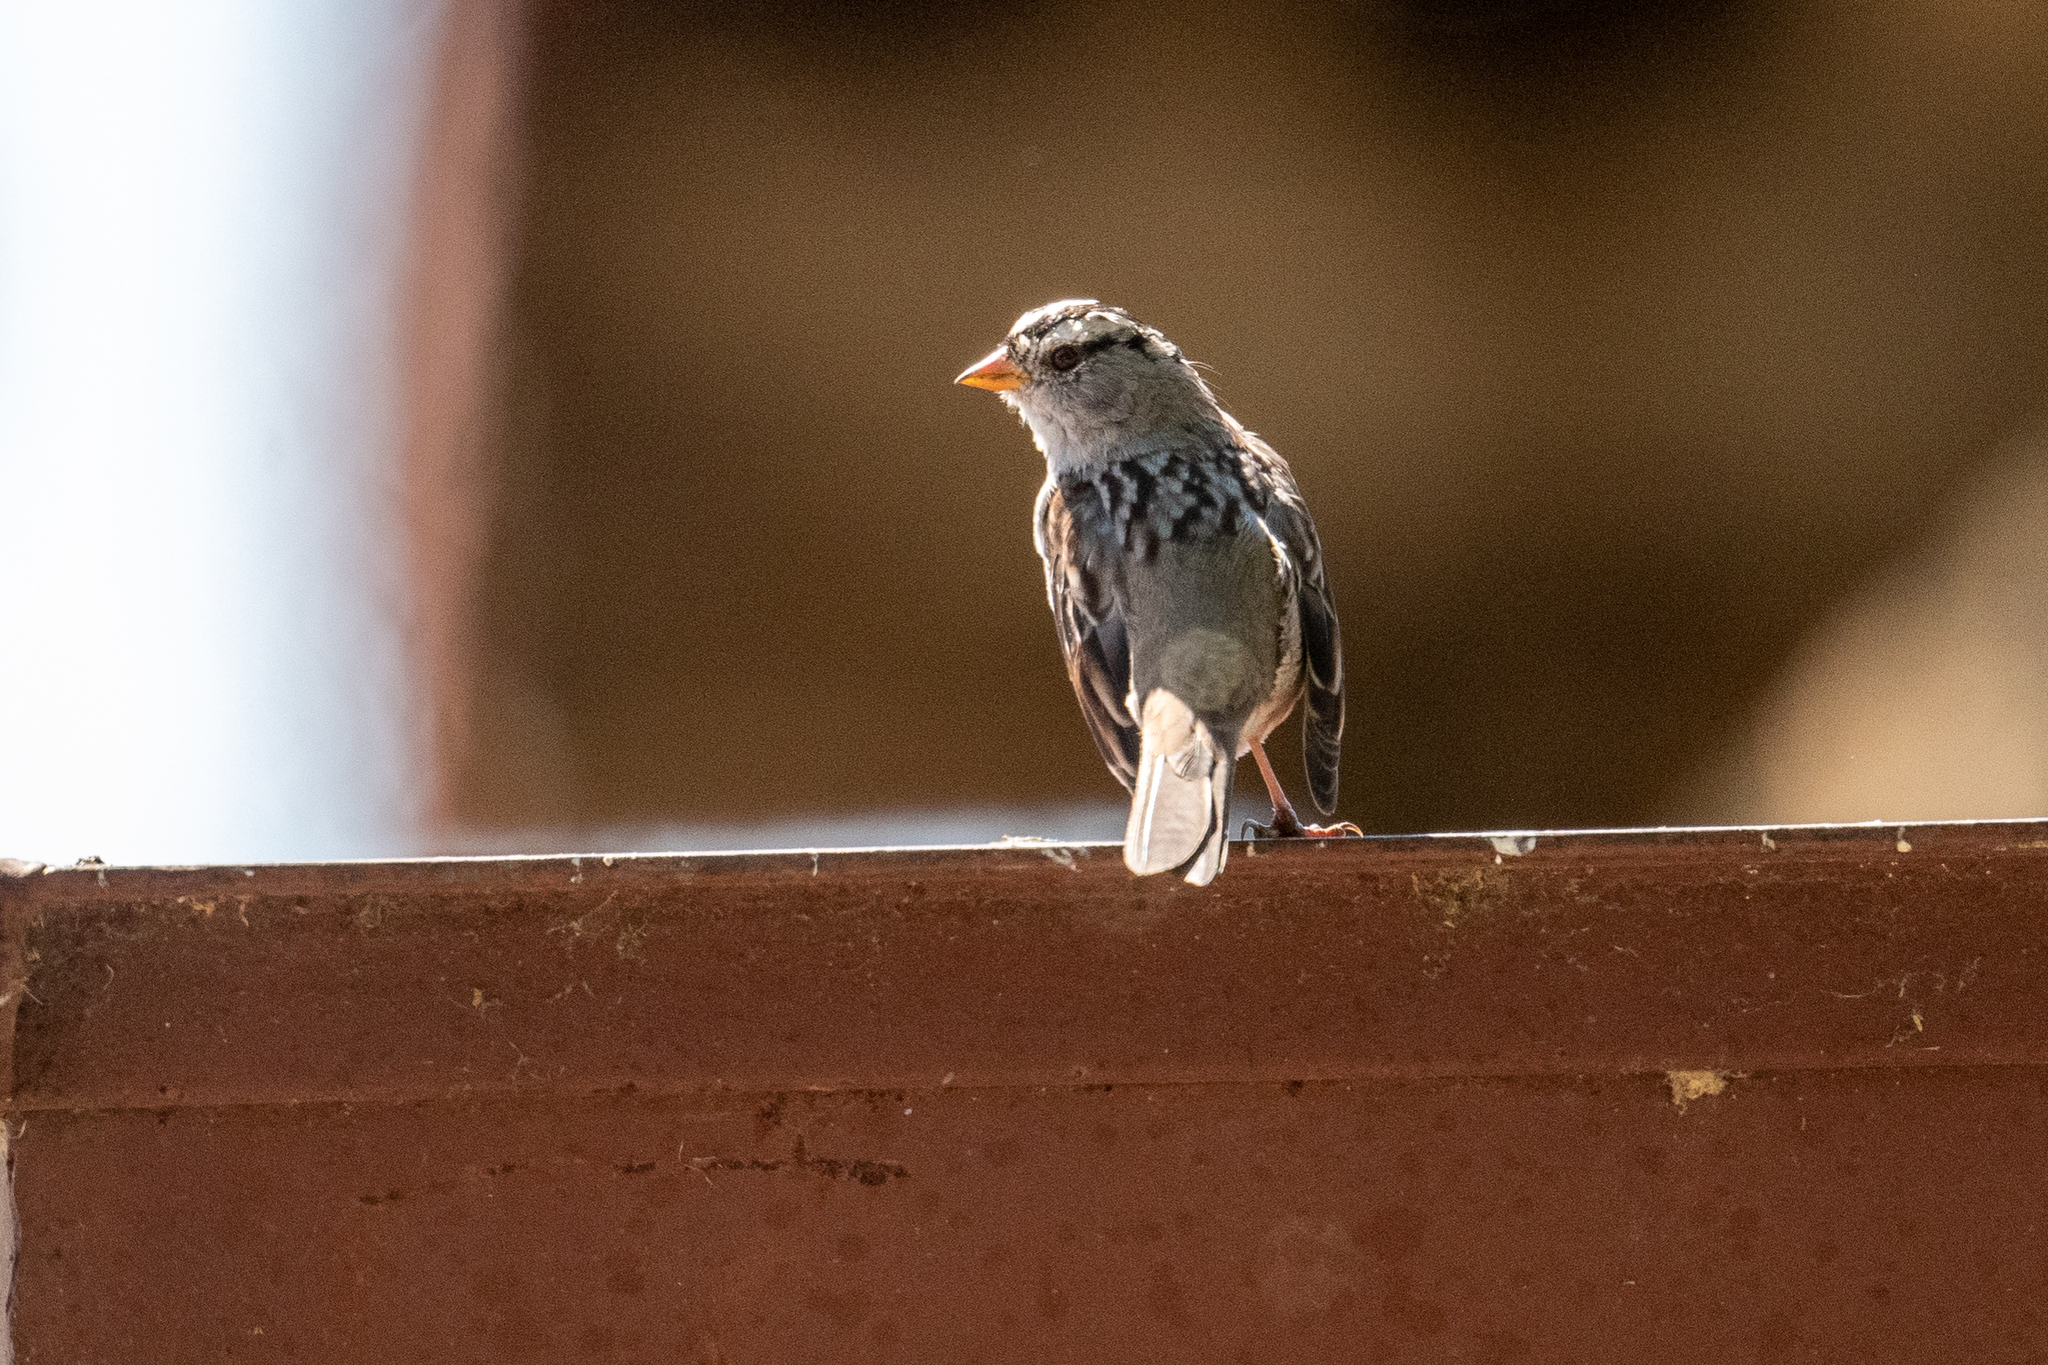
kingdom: Animalia
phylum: Chordata
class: Aves
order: Passeriformes
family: Passerellidae
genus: Zonotrichia
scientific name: Zonotrichia leucophrys
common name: White-crowned sparrow
